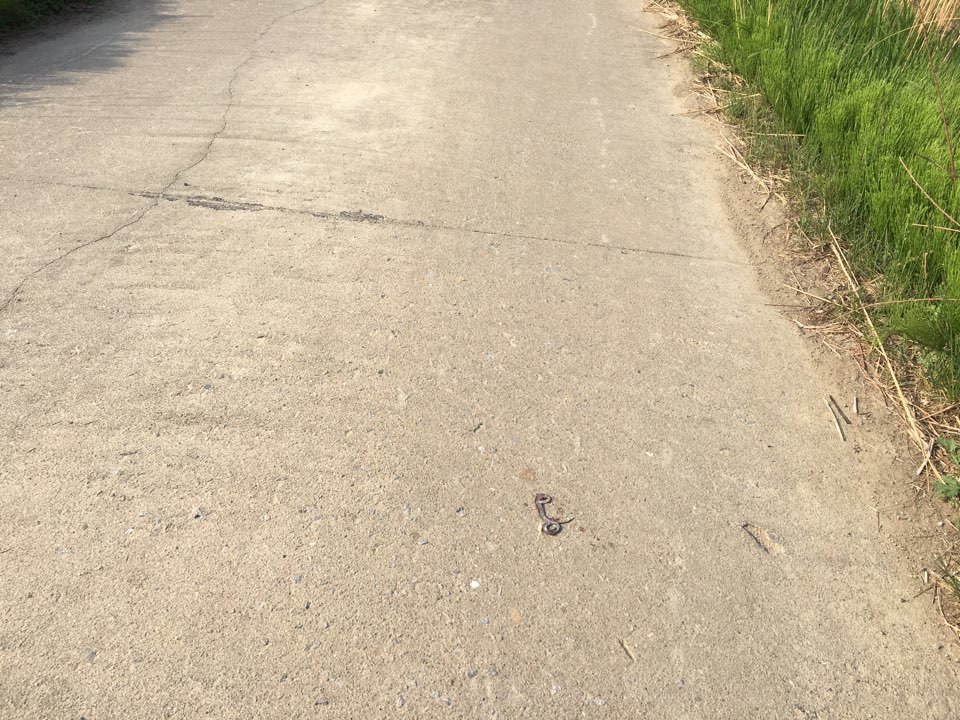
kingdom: Animalia
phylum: Chordata
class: Squamata
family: Colubridae
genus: Oocatochus
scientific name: Oocatochus rufodorsatus
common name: Frog-eating rat snake
